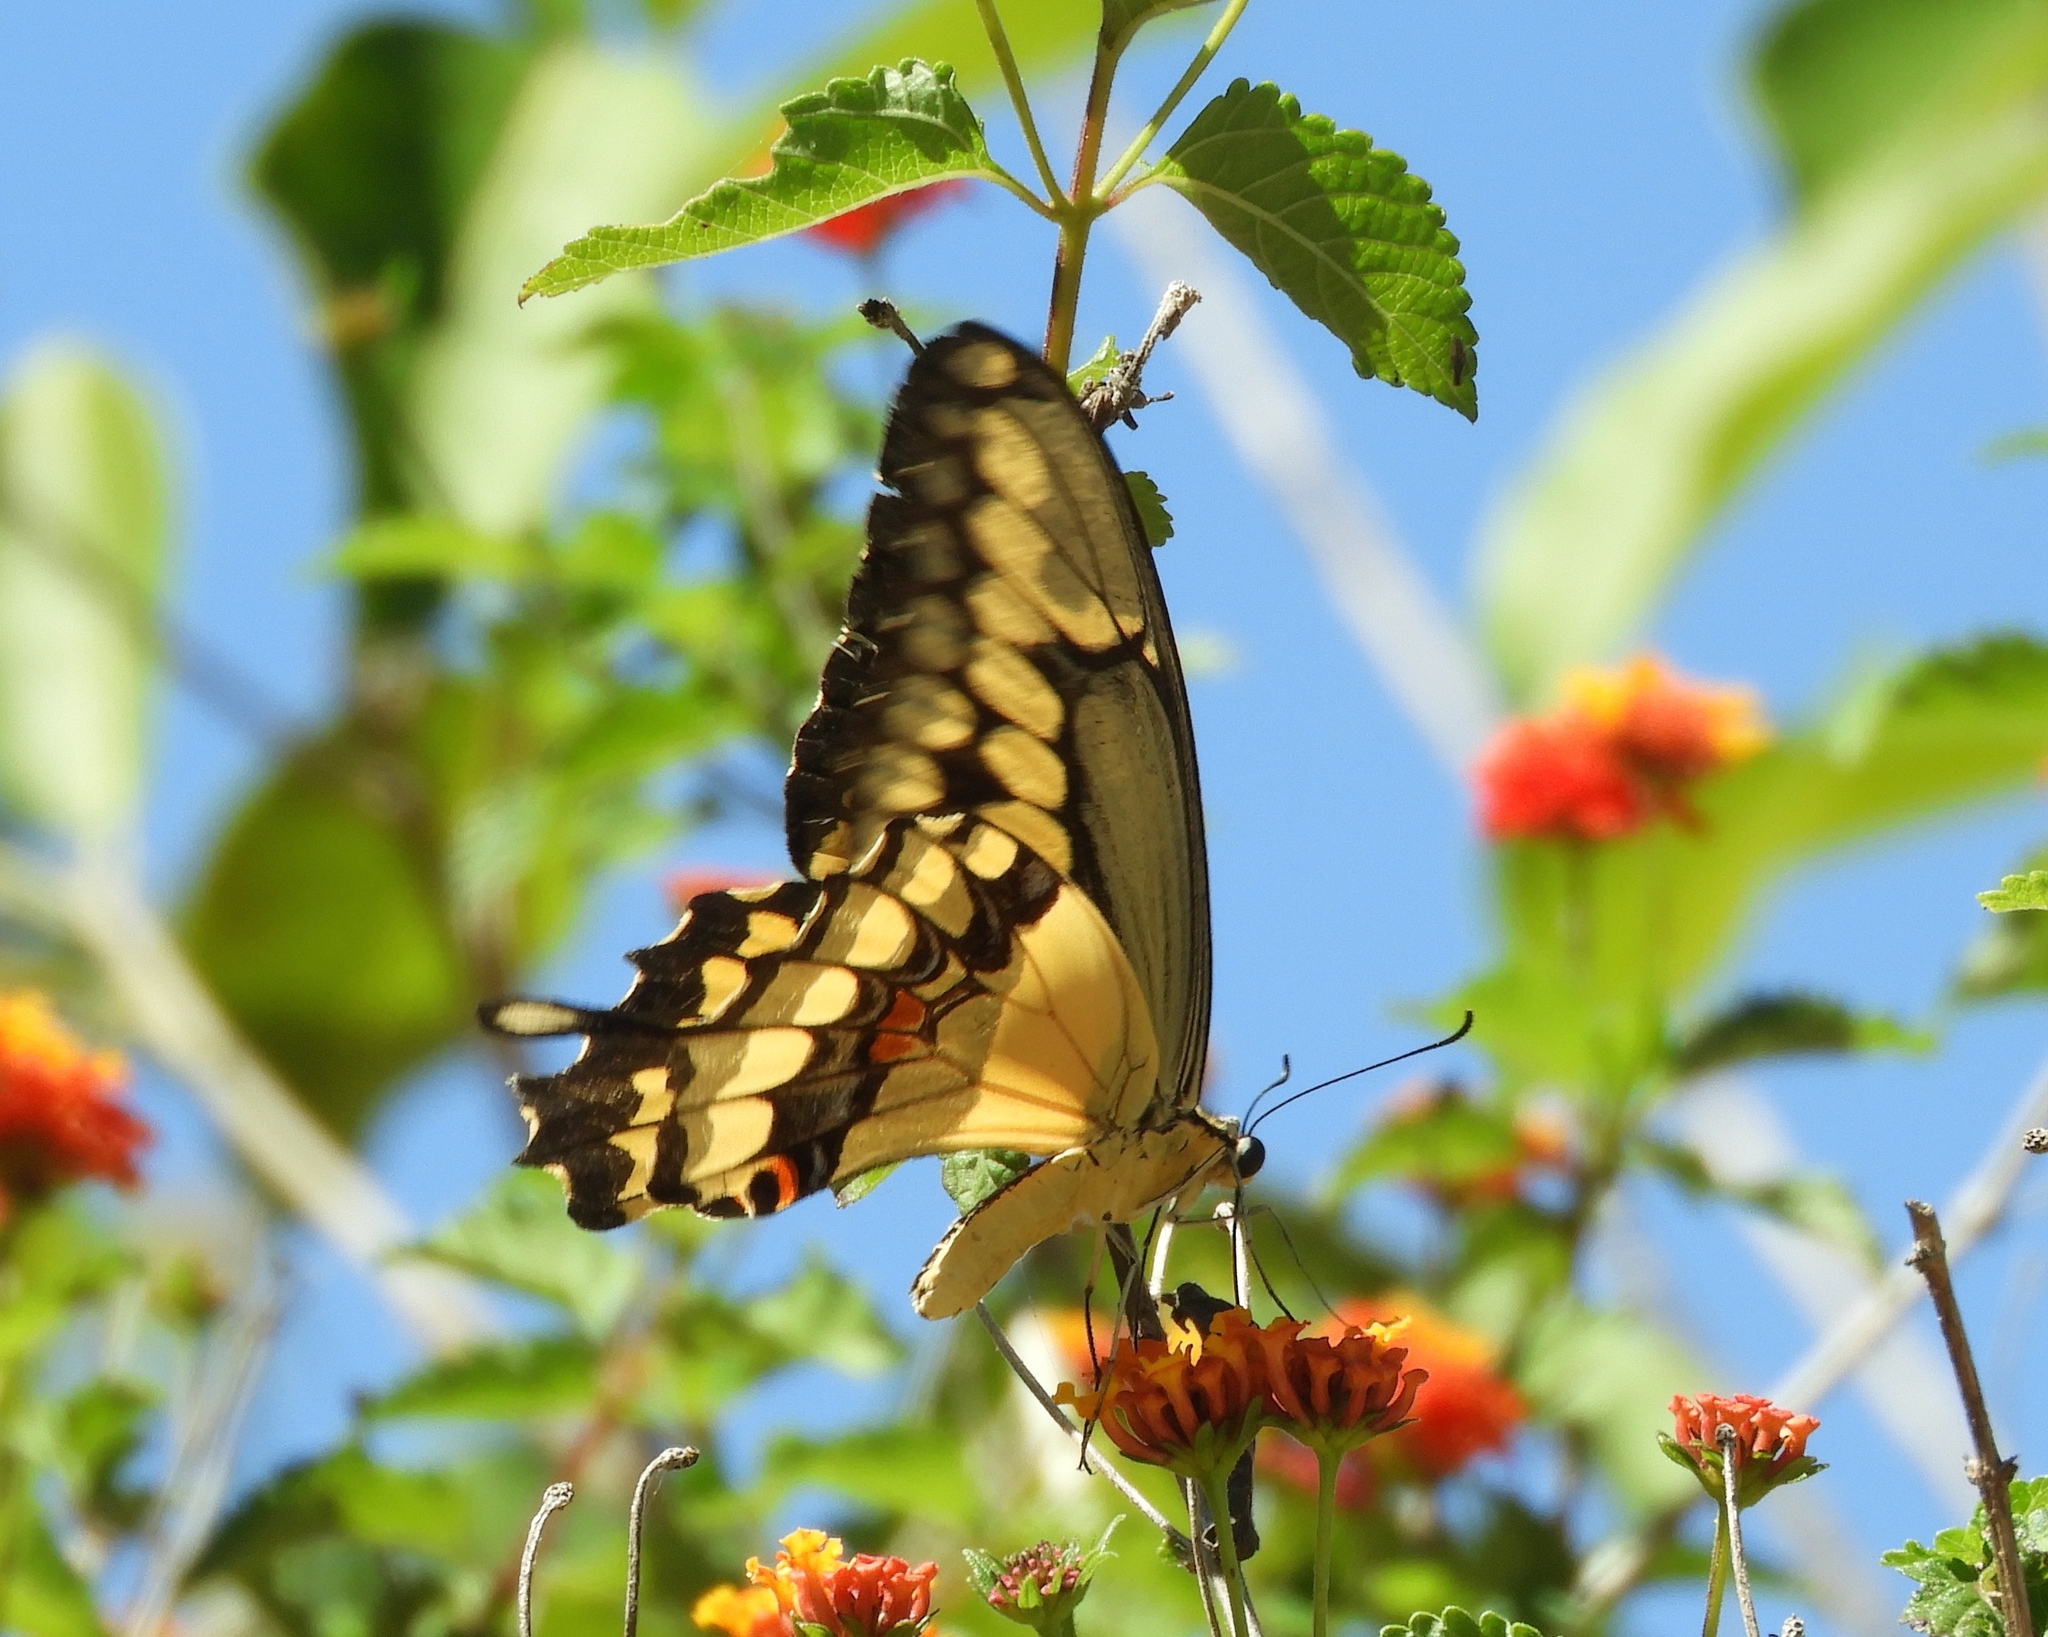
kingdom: Animalia
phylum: Arthropoda
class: Insecta
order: Lepidoptera
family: Papilionidae
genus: Papilio
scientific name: Papilio rumiko
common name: Western giant swallowtail
